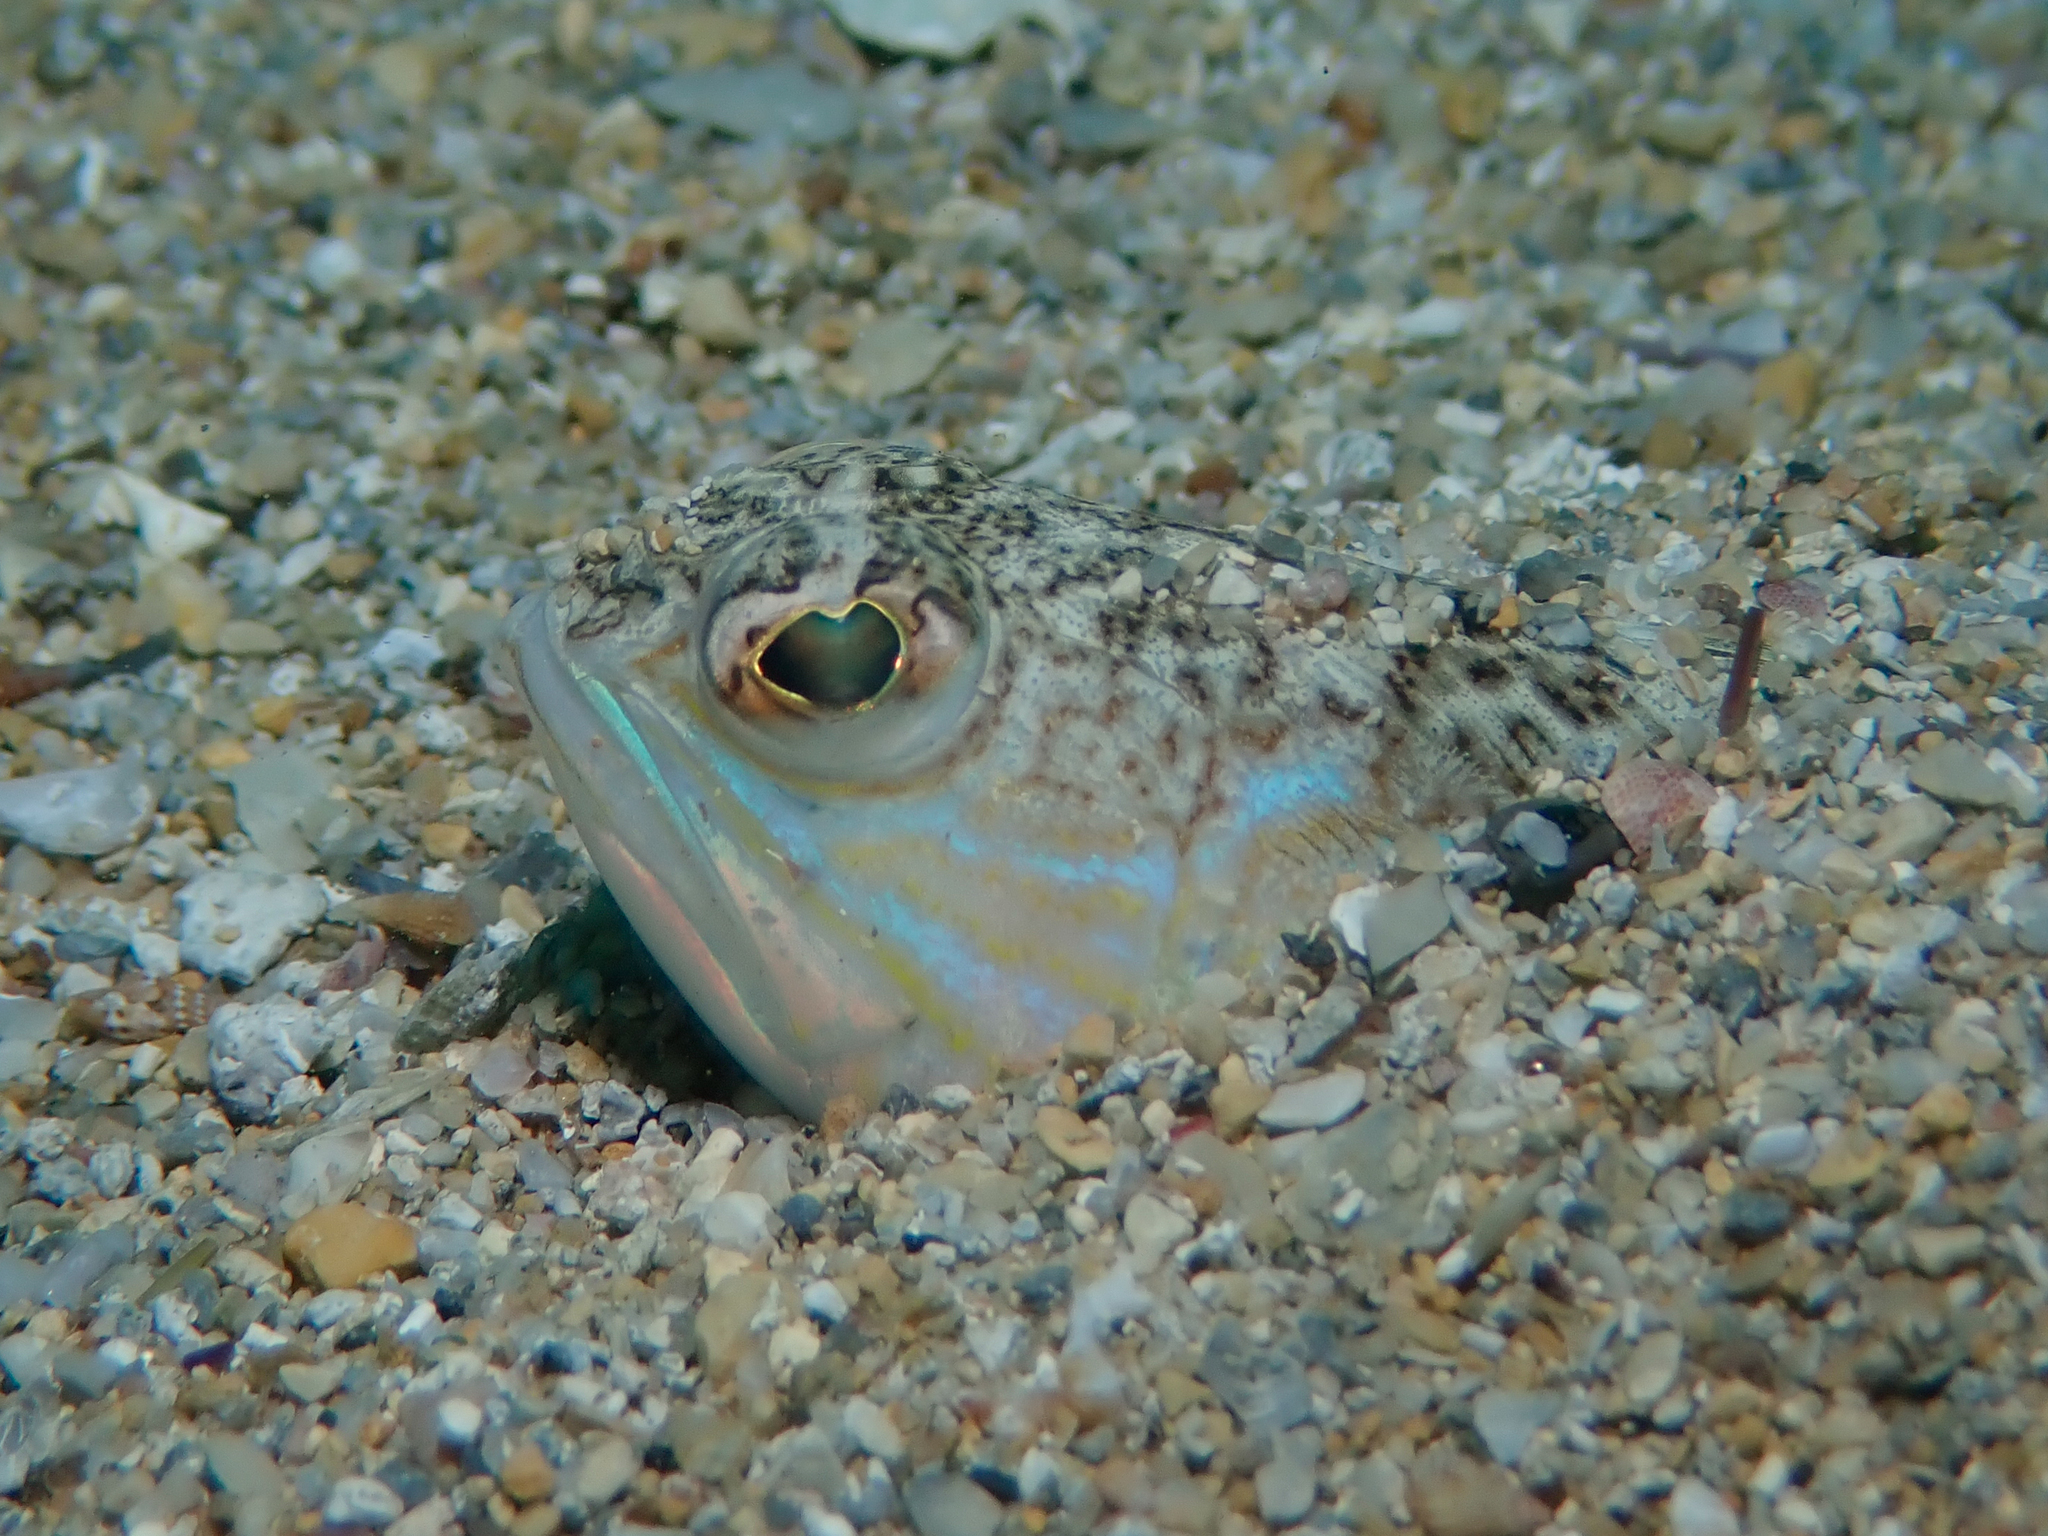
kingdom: Animalia
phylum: Chordata
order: Perciformes
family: Trachinidae
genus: Trachinus
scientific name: Trachinus draco
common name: Greater weever
